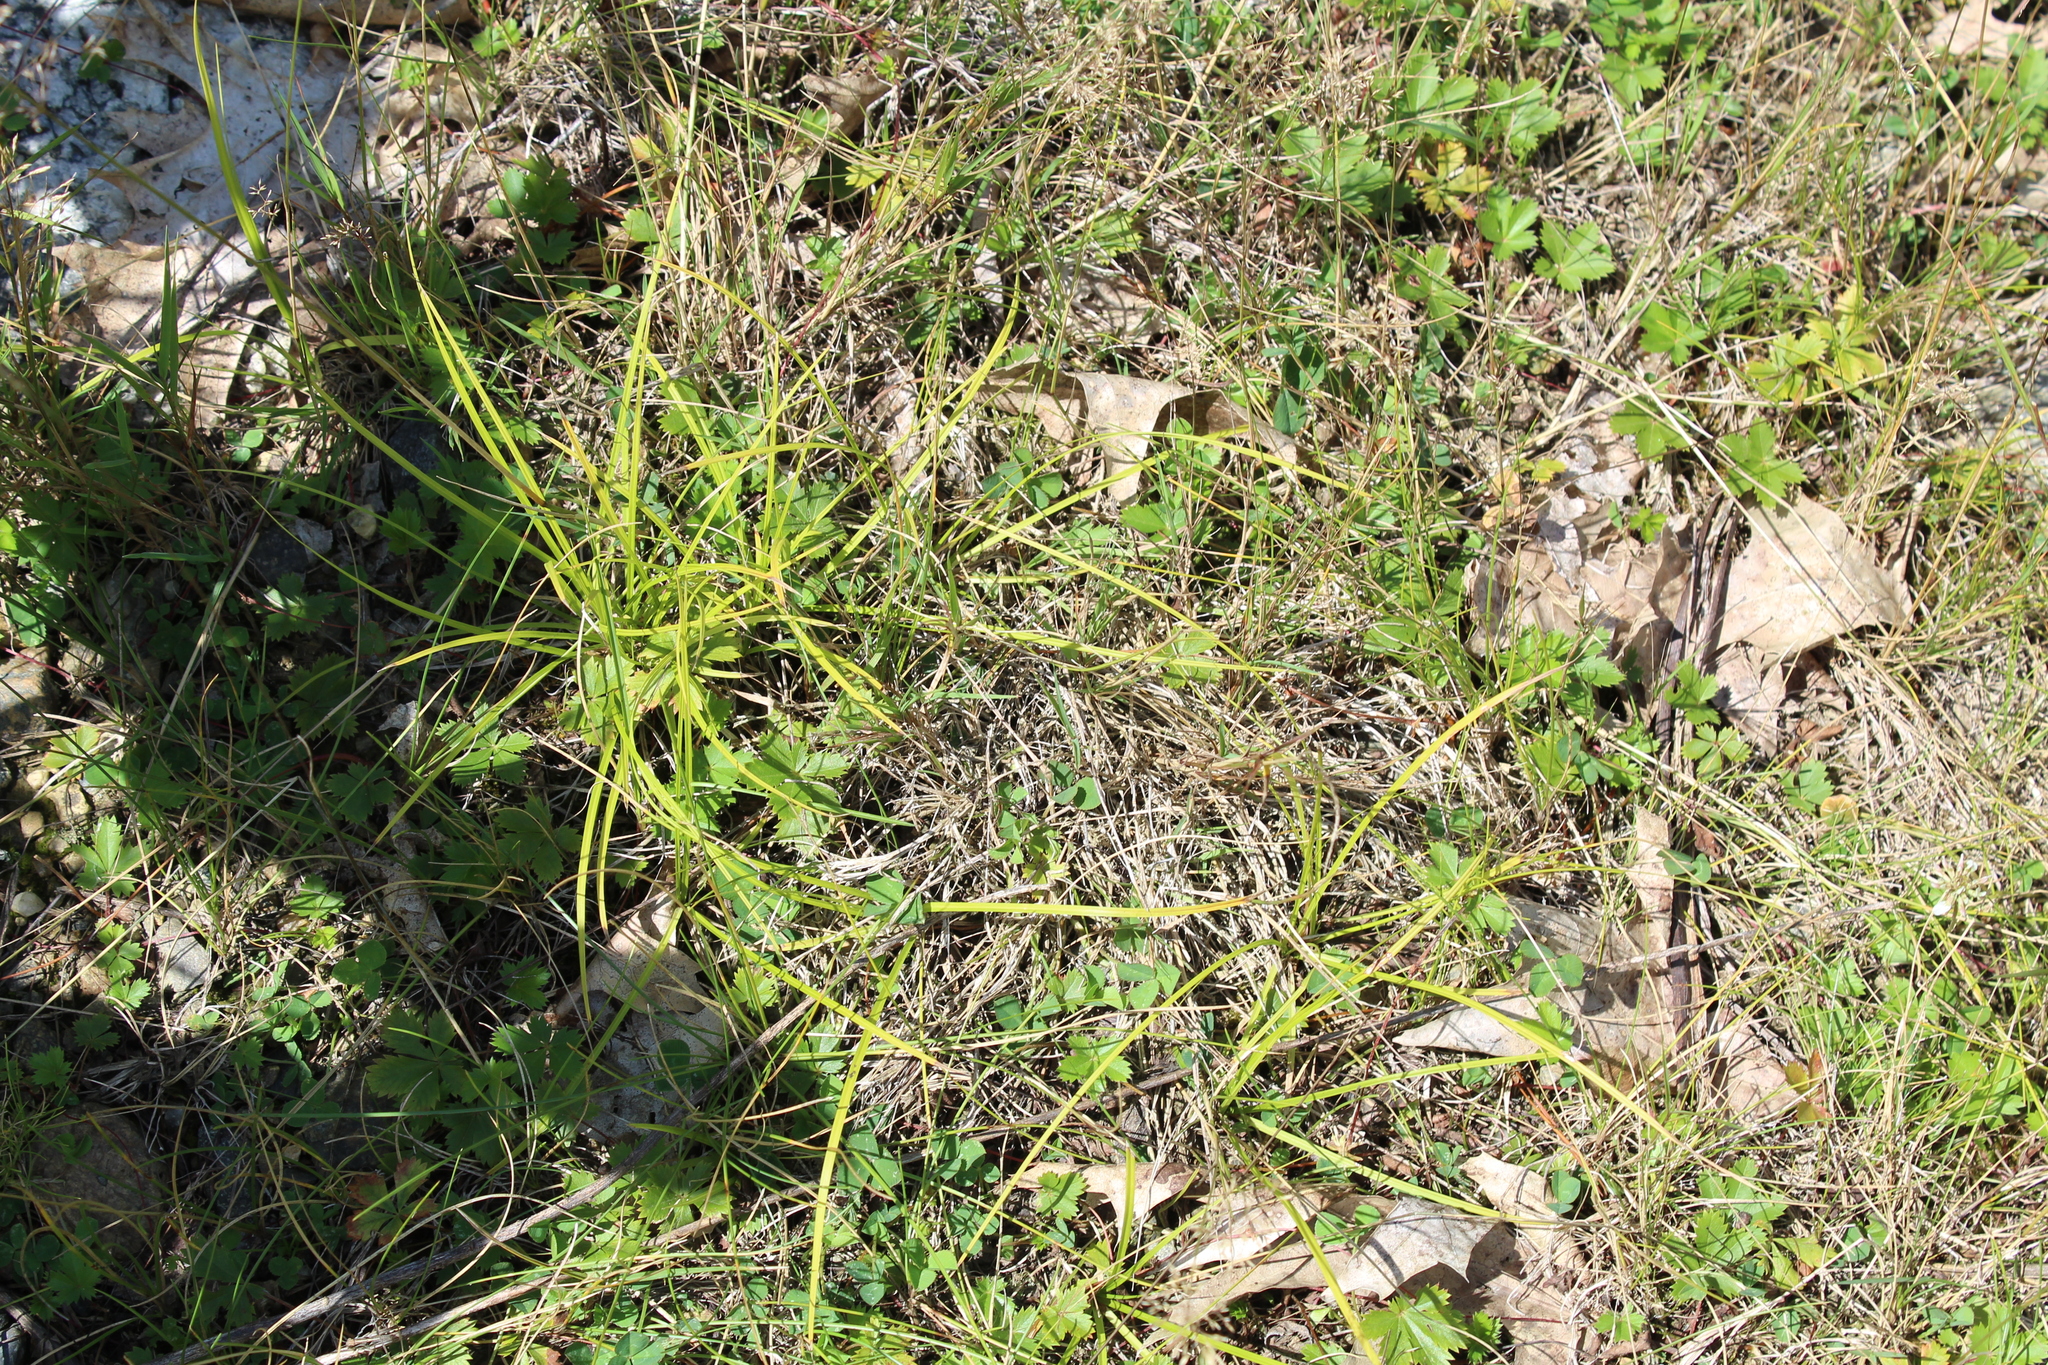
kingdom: Plantae
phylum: Tracheophyta
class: Liliopsida
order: Poales
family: Cyperaceae
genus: Carex
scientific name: Carex
